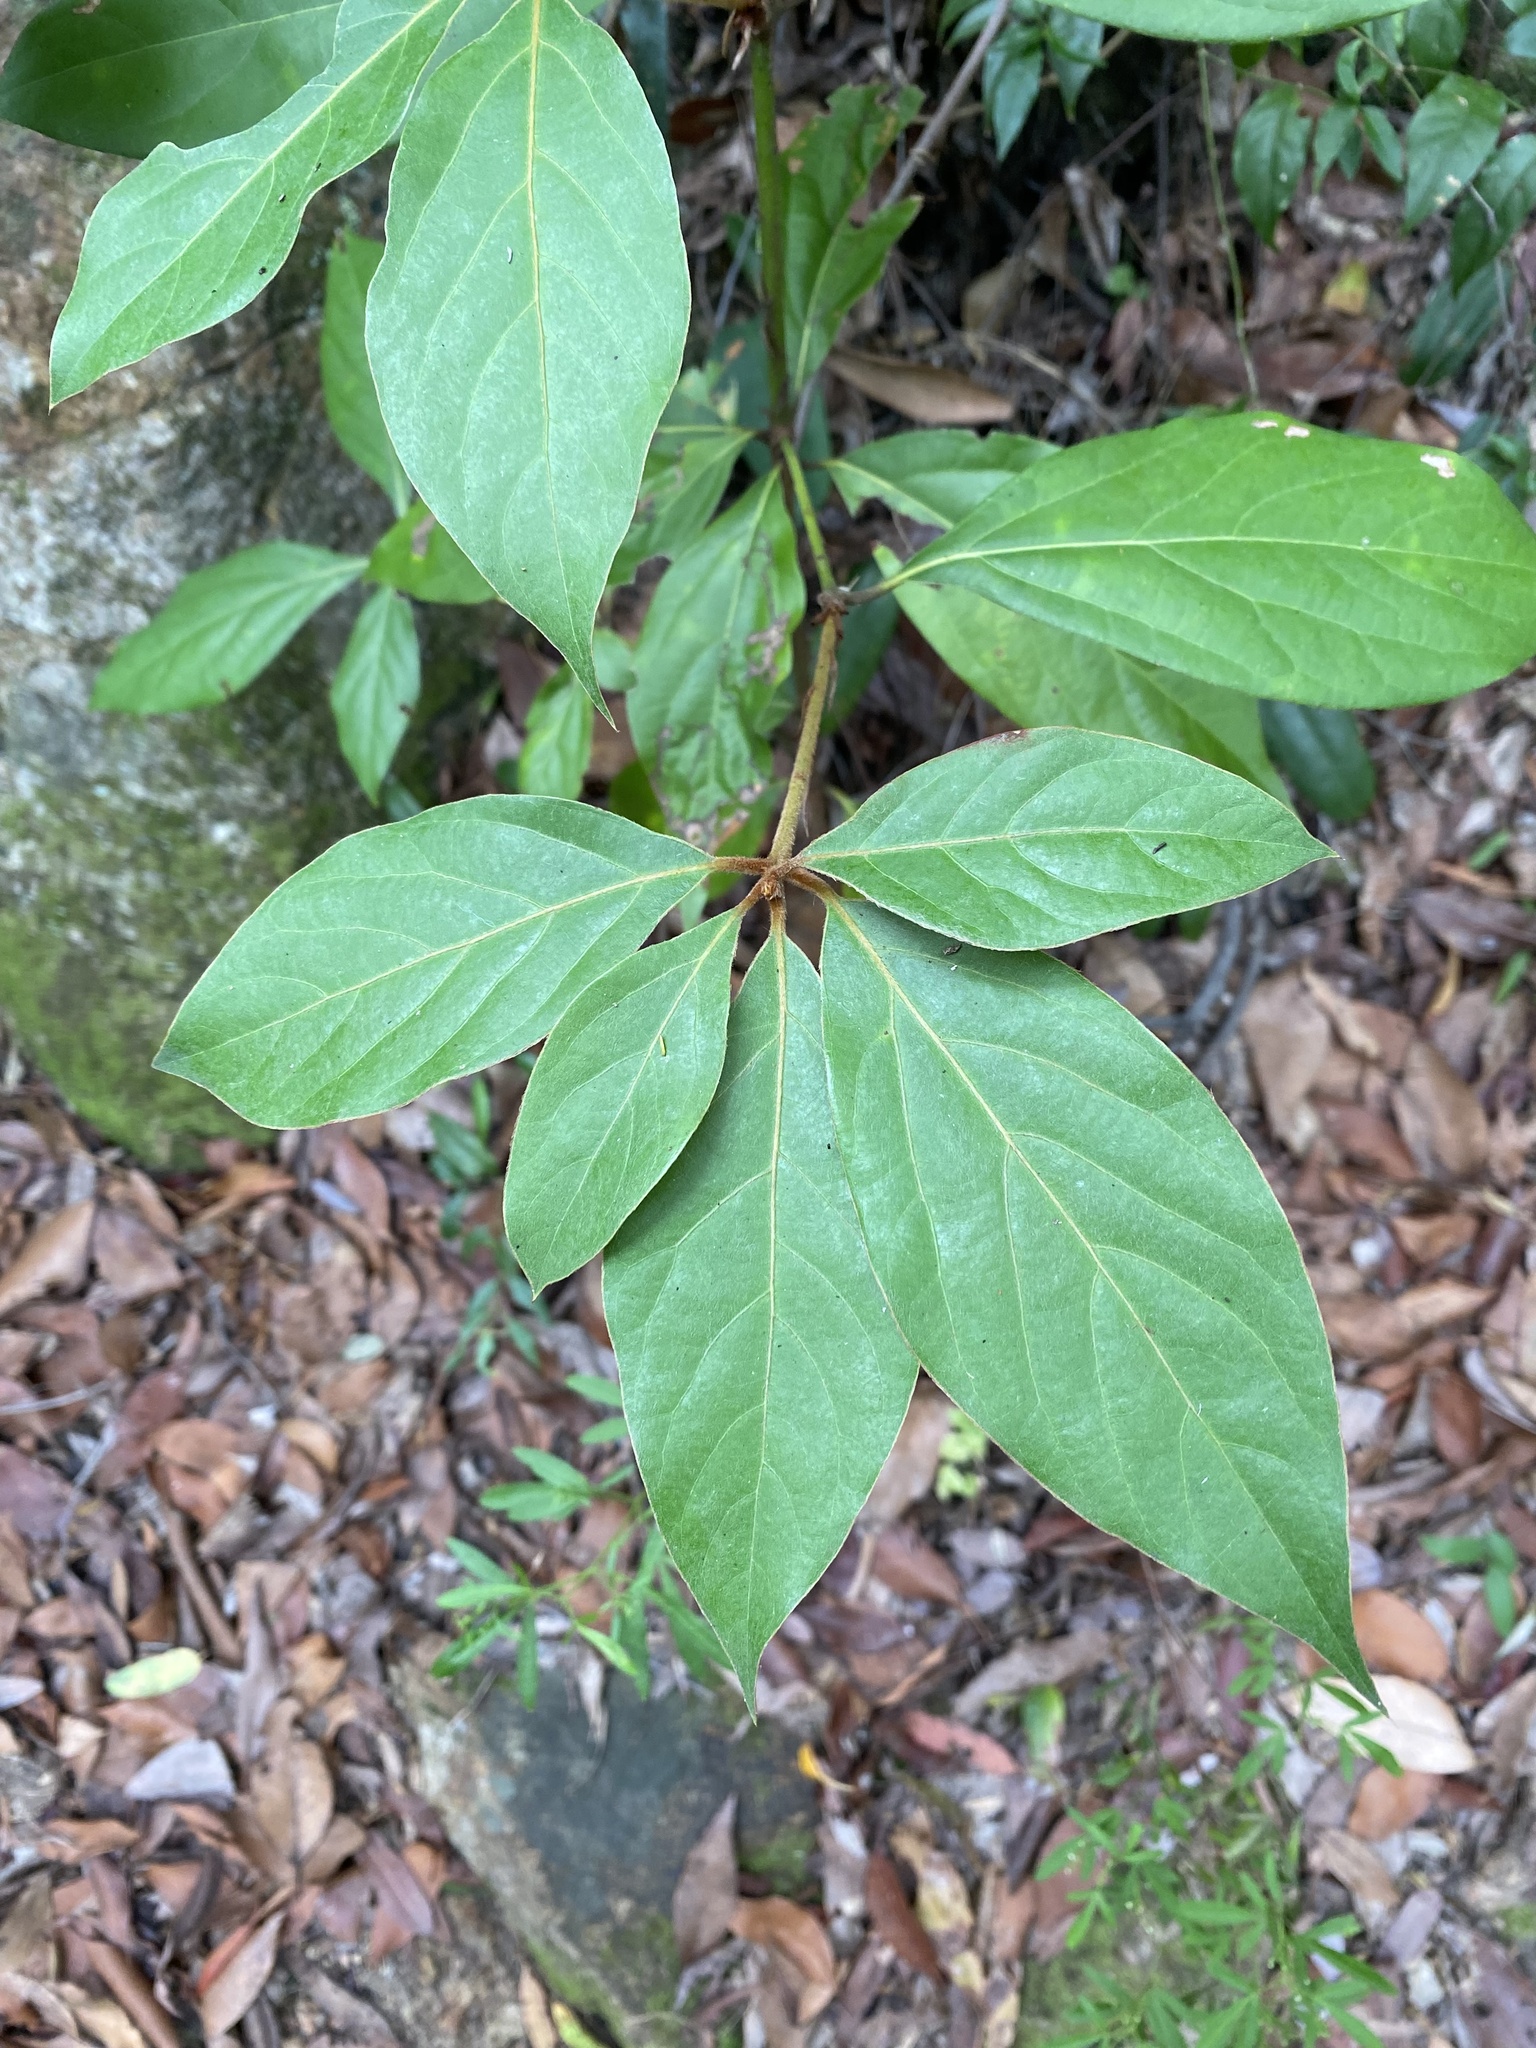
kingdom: Plantae
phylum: Tracheophyta
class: Magnoliopsida
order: Laurales
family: Lauraceae
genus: Neolitsea
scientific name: Neolitsea dealbata
